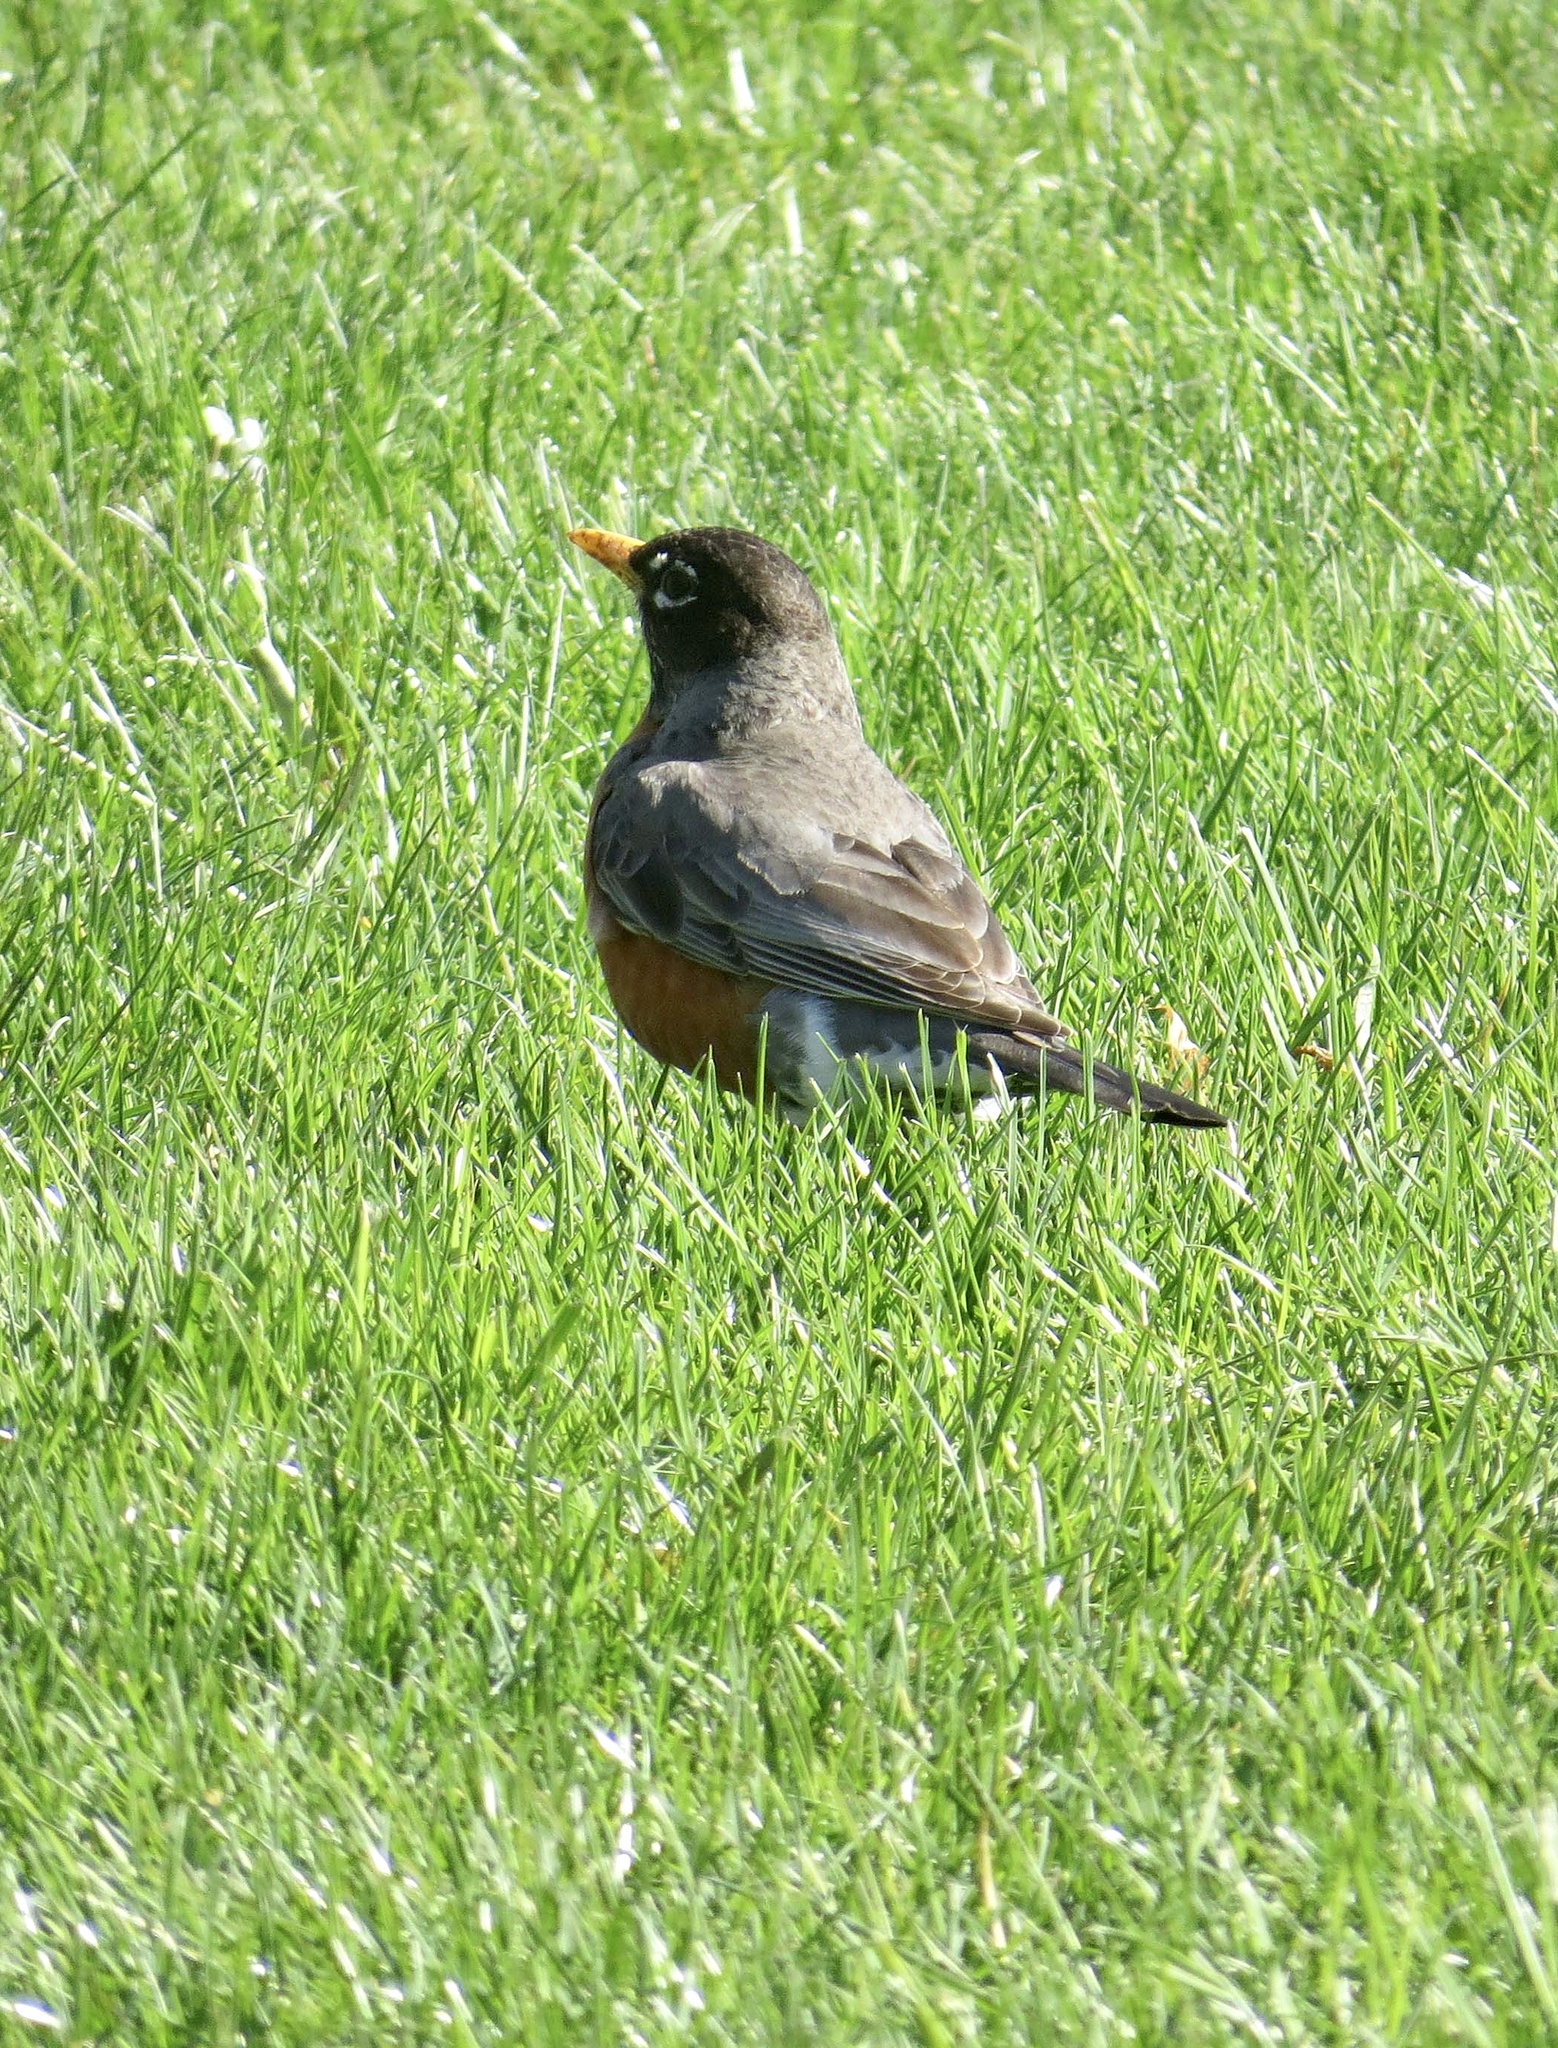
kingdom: Animalia
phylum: Chordata
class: Aves
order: Passeriformes
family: Turdidae
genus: Turdus
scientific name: Turdus migratorius
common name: American robin
